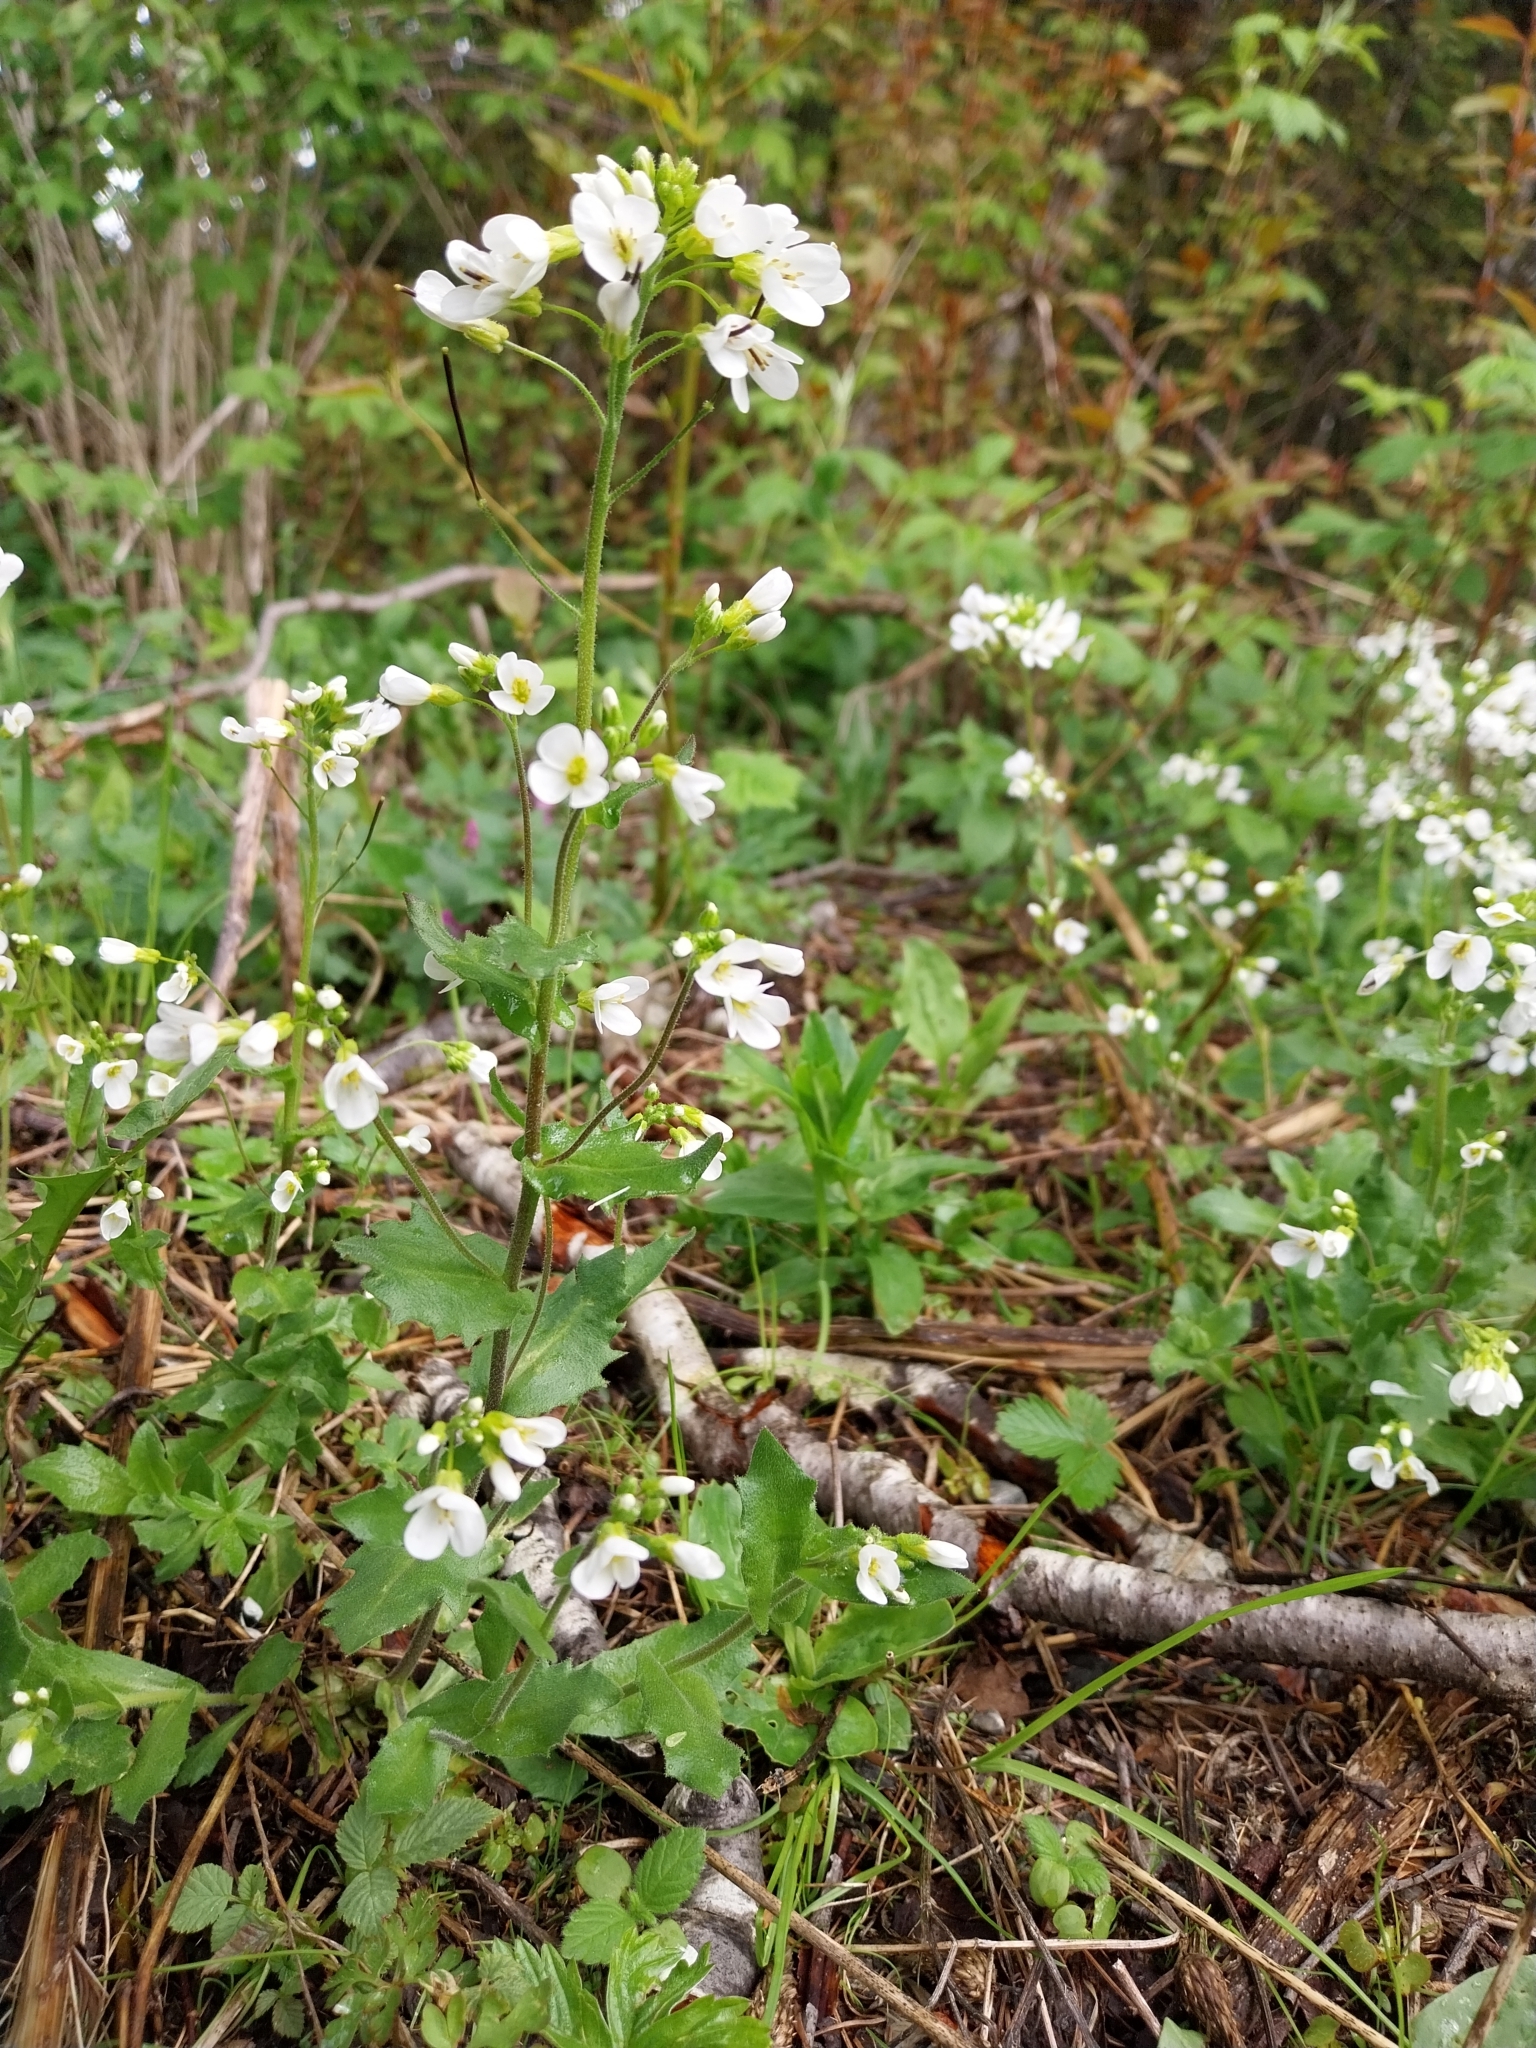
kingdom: Plantae
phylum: Tracheophyta
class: Magnoliopsida
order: Brassicales
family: Brassicaceae
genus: Arabis
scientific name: Arabis alpina
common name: Alpine rock-cress
